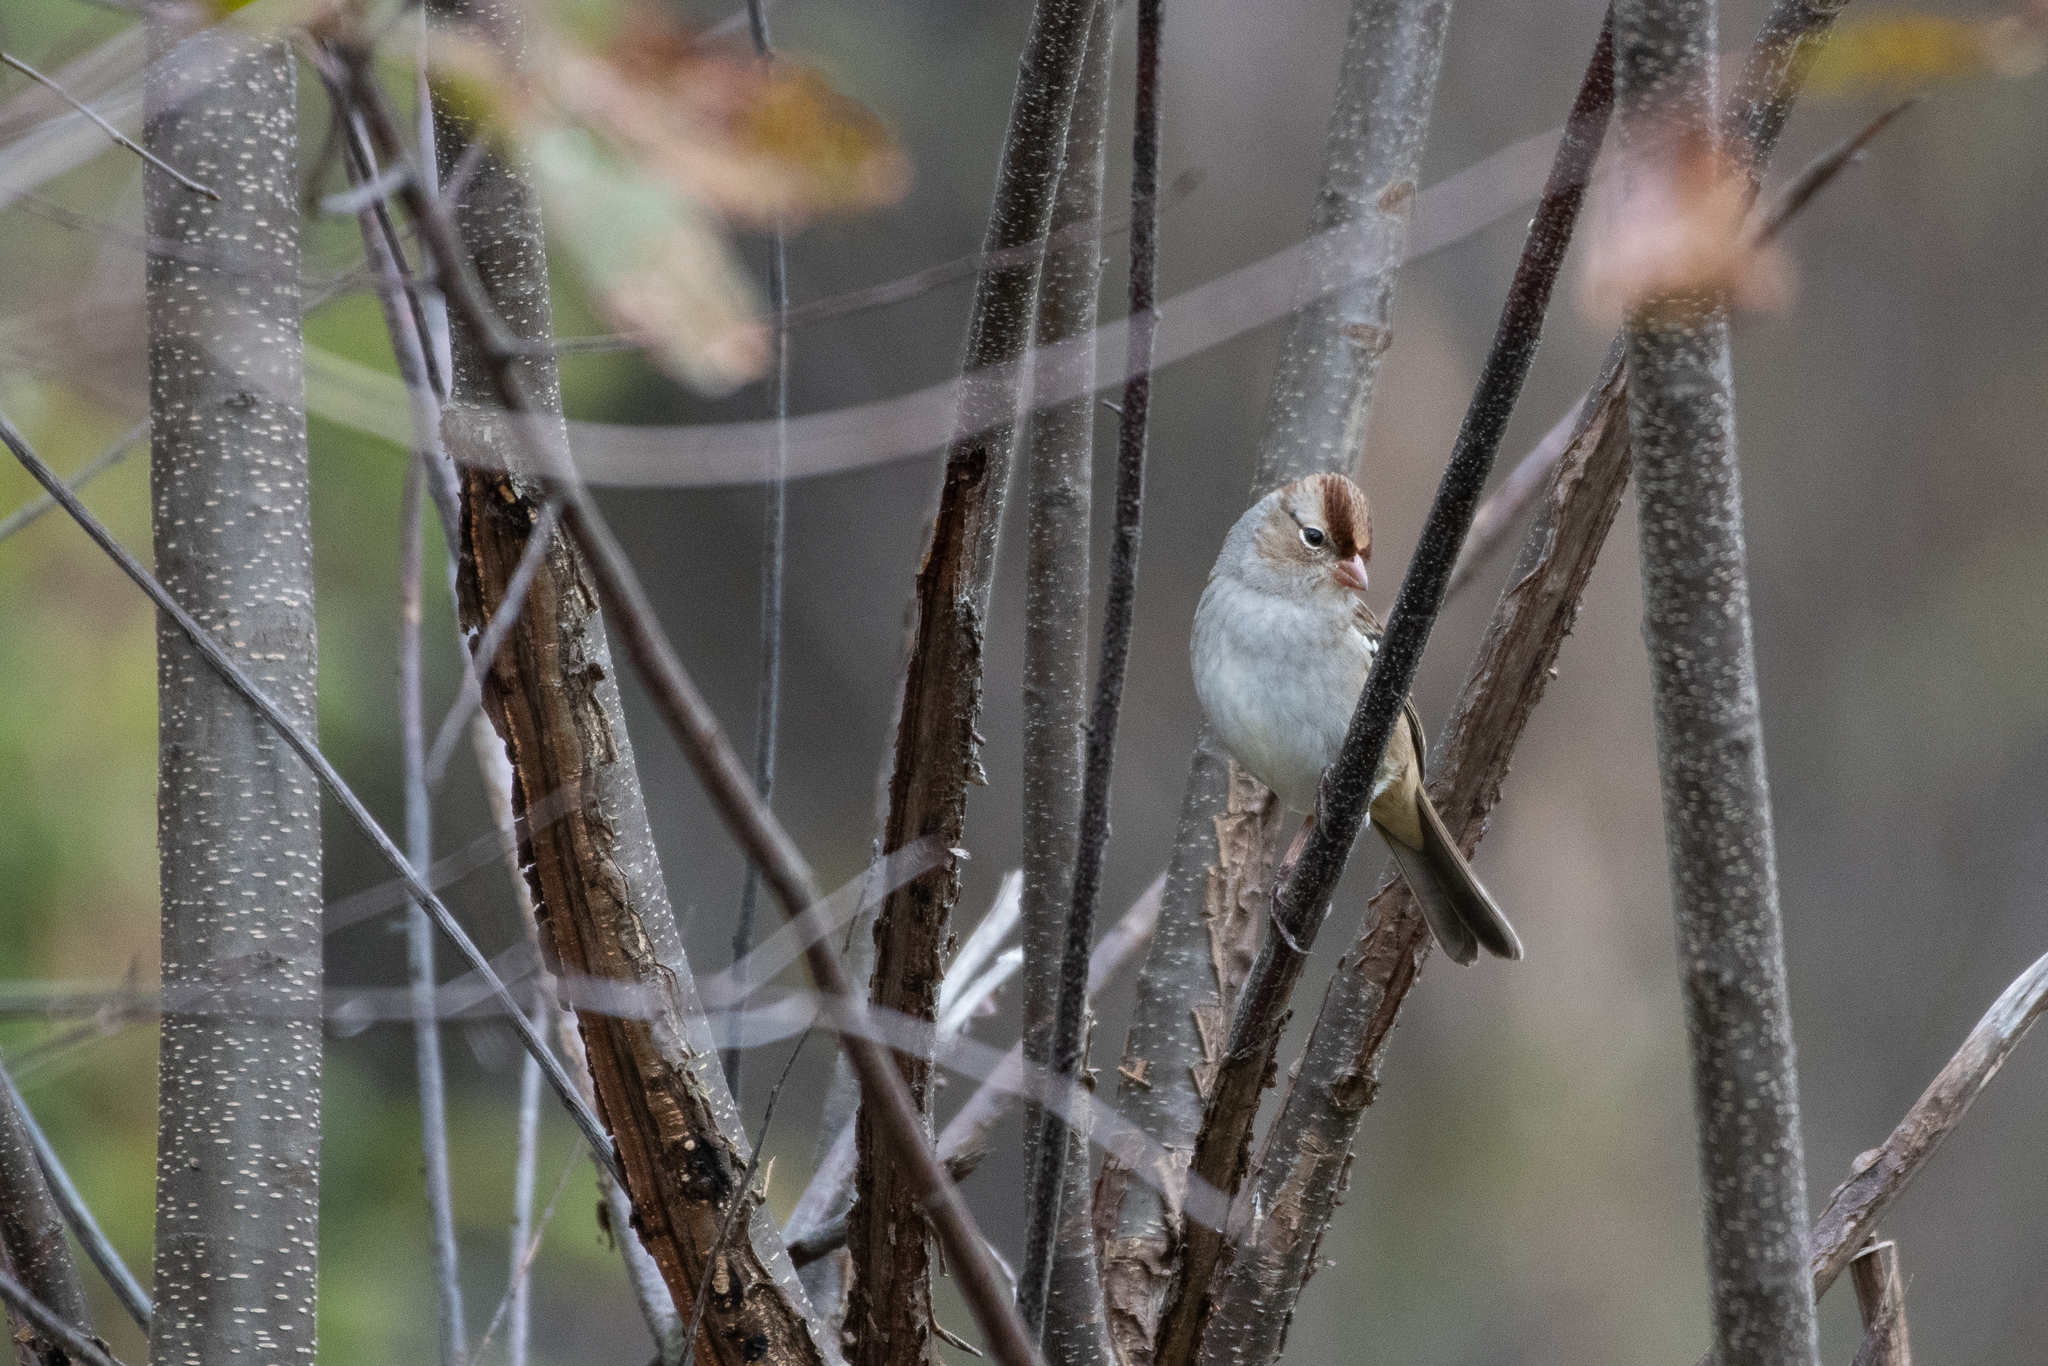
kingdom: Animalia
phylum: Chordata
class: Aves
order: Passeriformes
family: Passerellidae
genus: Zonotrichia
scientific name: Zonotrichia leucophrys
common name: White-crowned sparrow
